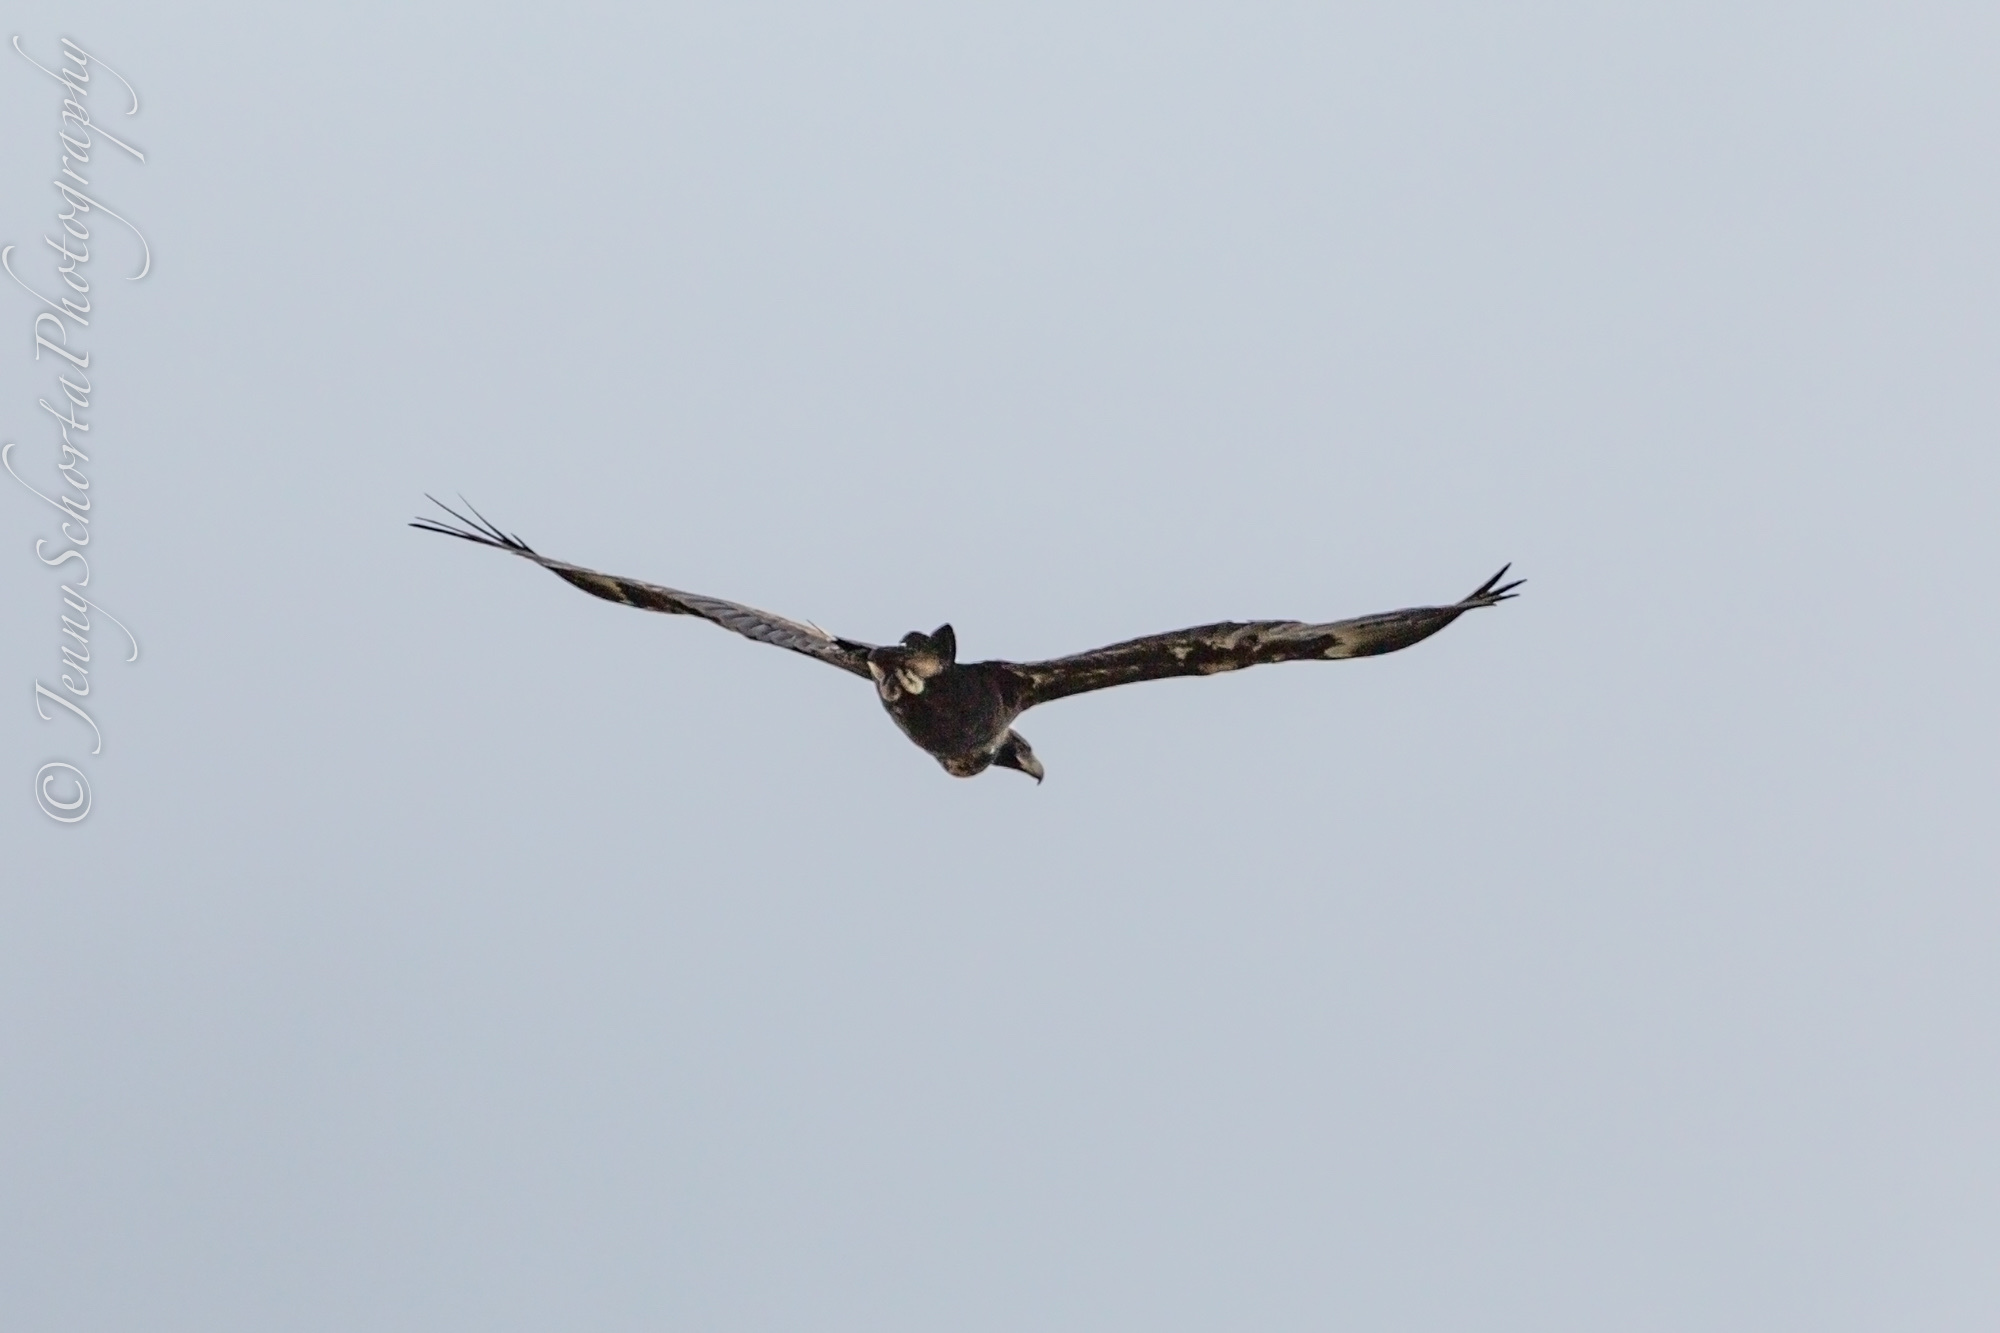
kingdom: Animalia
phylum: Chordata
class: Aves
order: Accipitriformes
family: Accipitridae
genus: Aquila
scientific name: Aquila audax
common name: Wedge-tailed eagle
